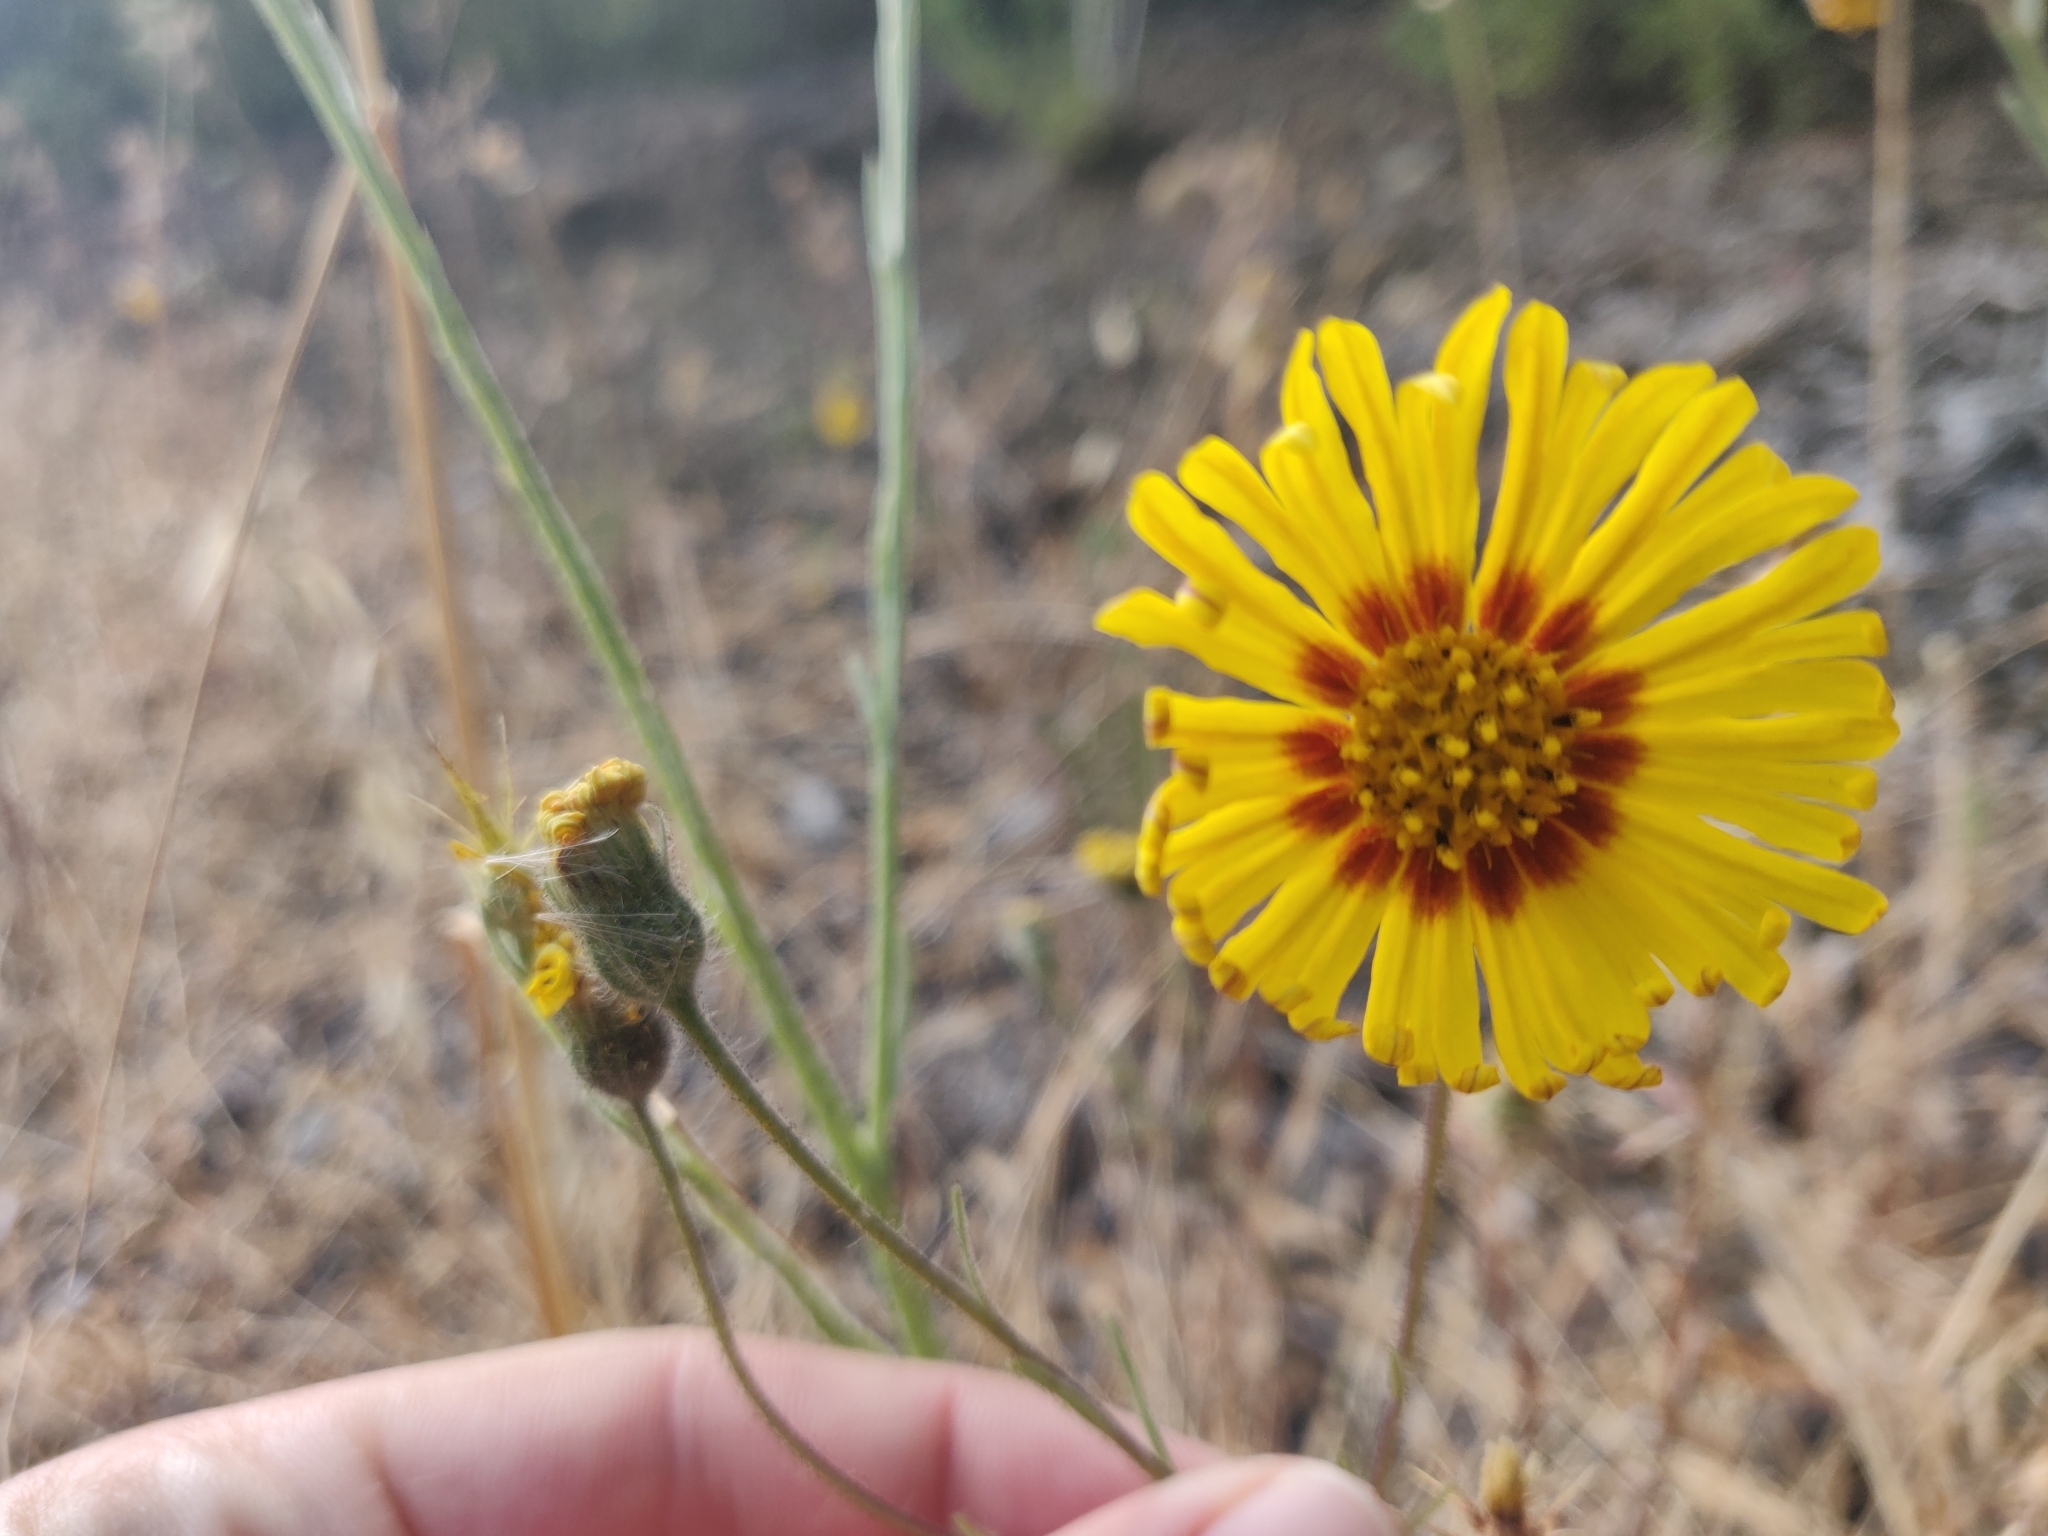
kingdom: Plantae
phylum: Tracheophyta
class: Magnoliopsida
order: Asterales
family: Asteraceae
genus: Madia
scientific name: Madia elegans
